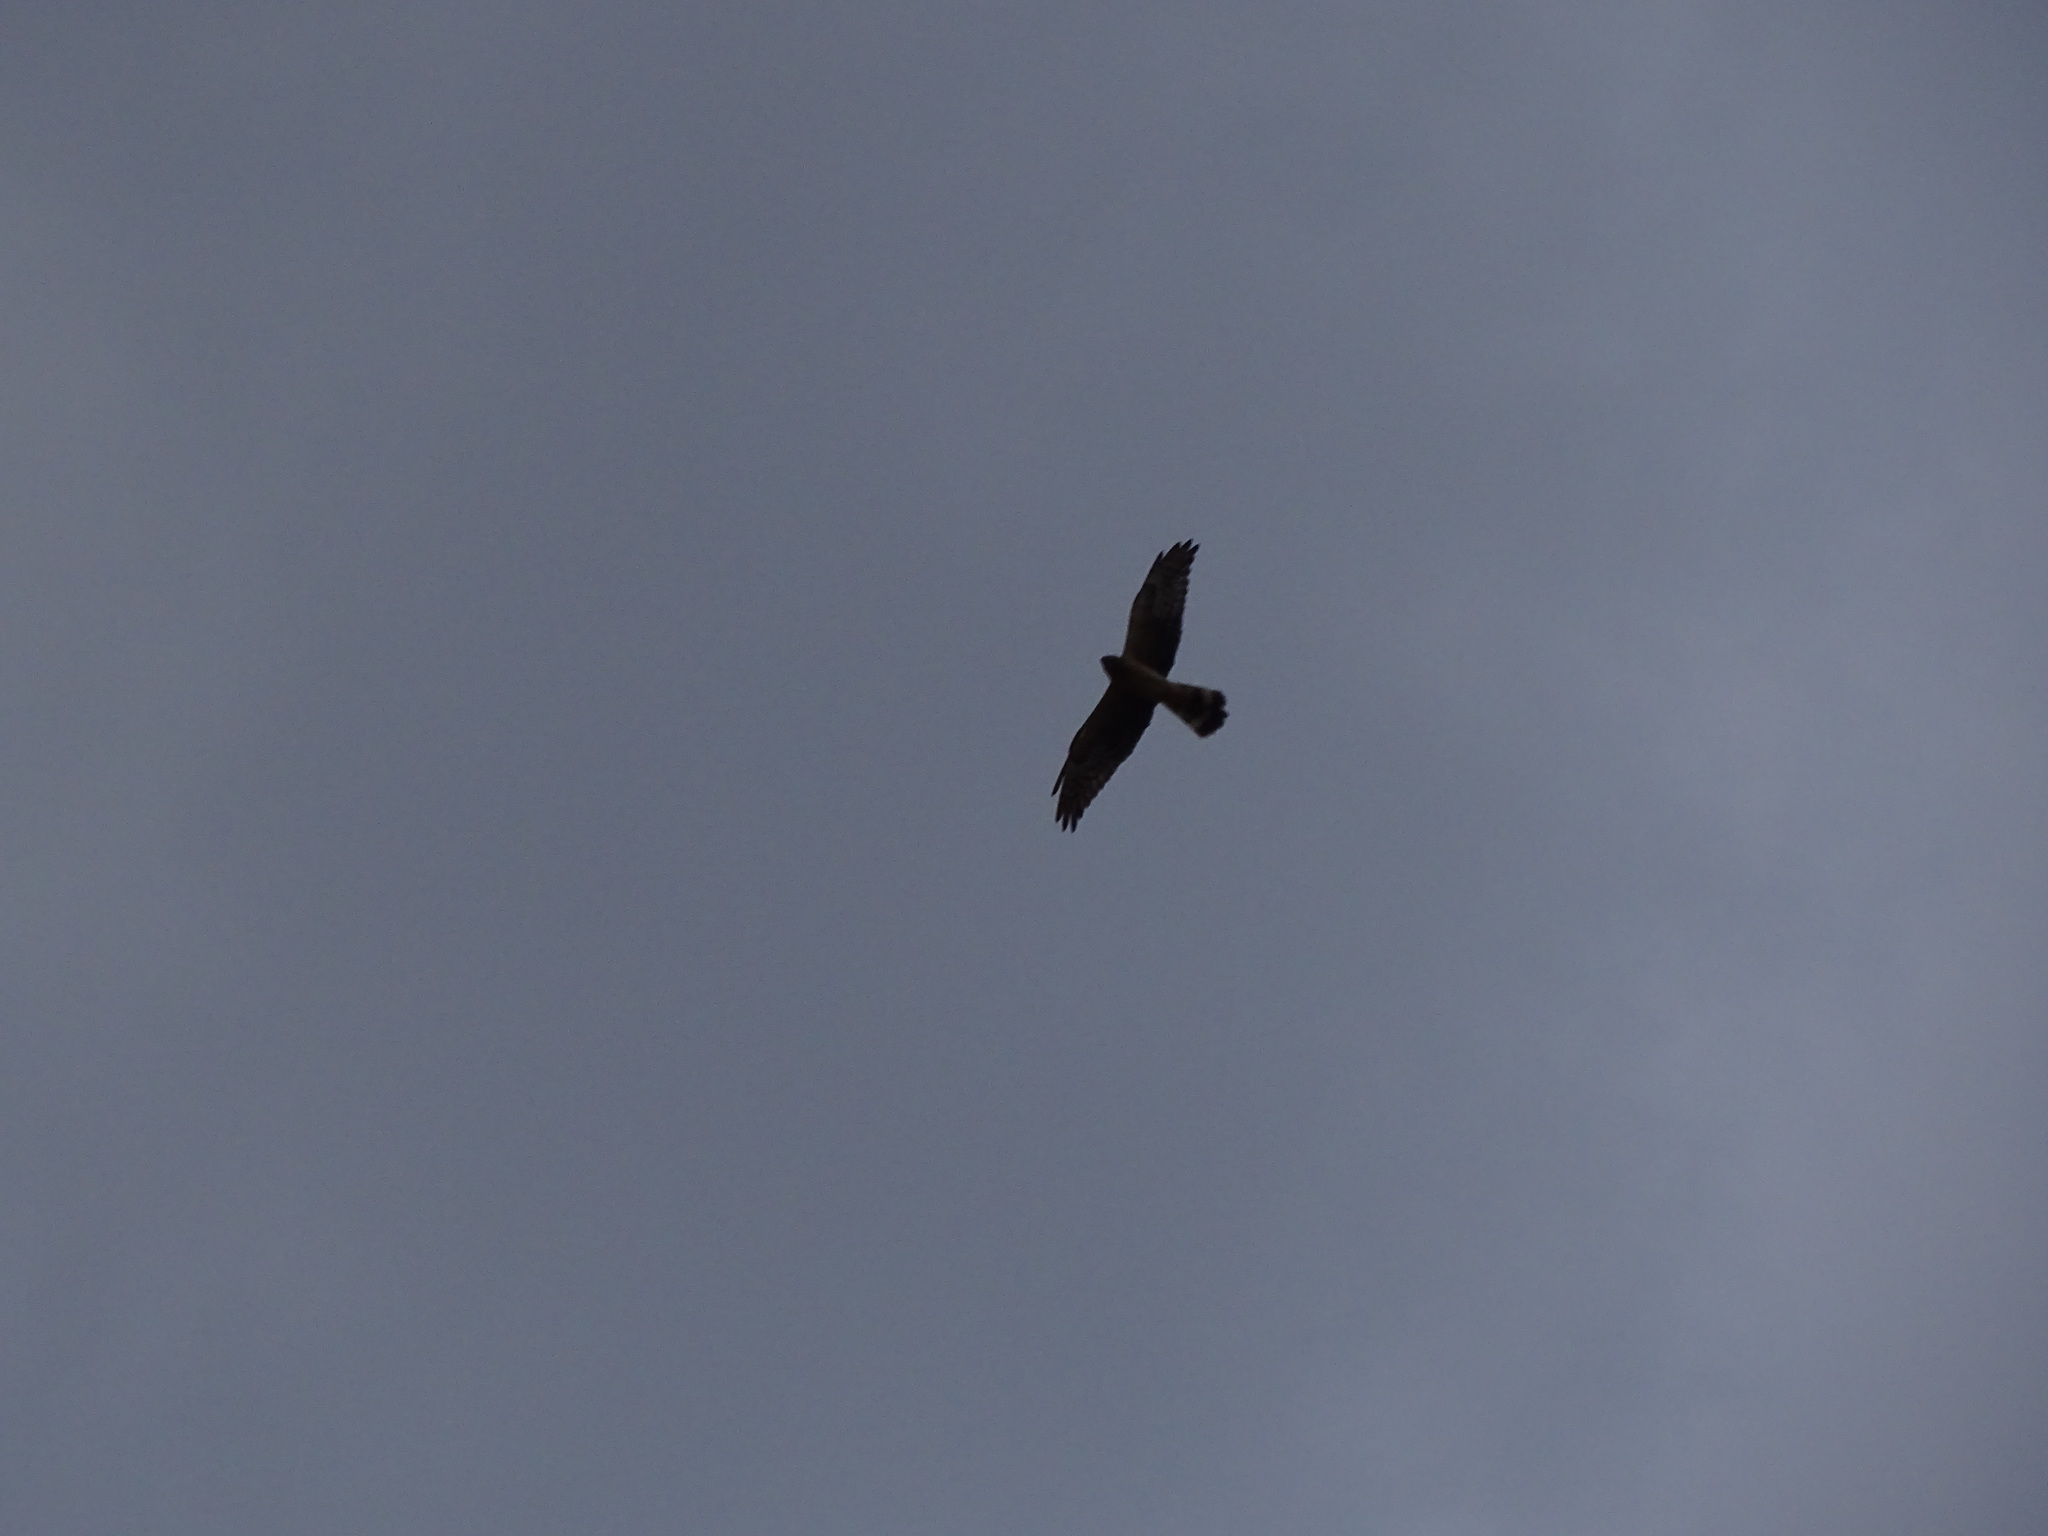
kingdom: Animalia
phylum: Chordata
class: Aves
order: Accipitriformes
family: Accipitridae
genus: Circus
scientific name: Circus macrourus
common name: Pallid harrier
